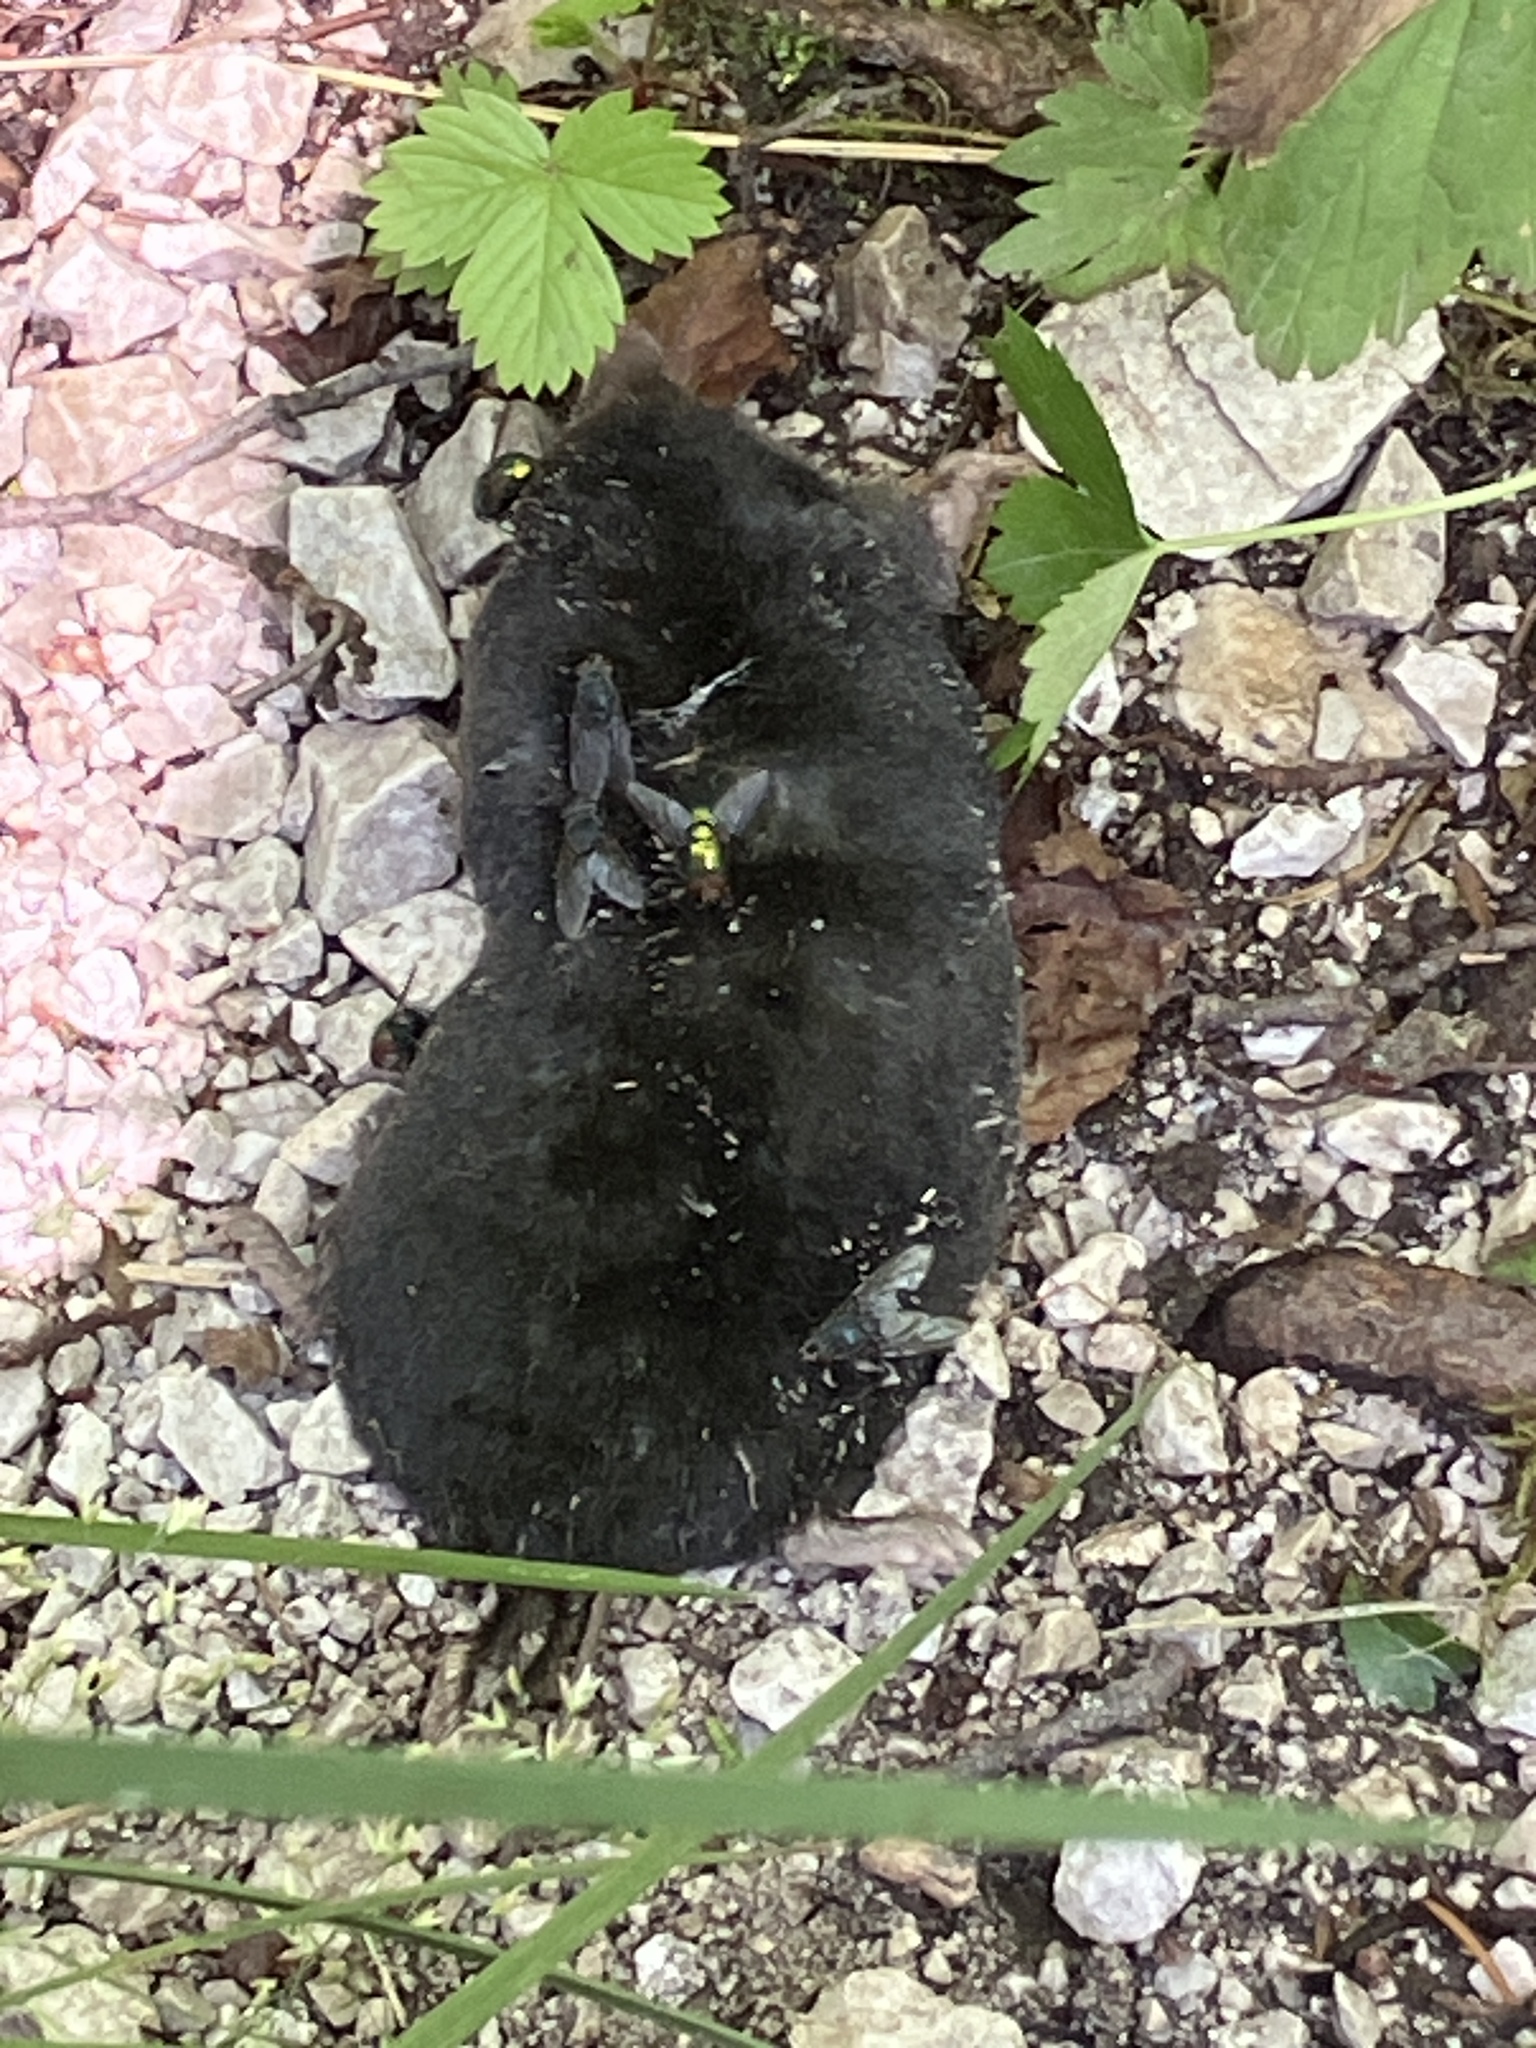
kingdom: Animalia
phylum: Chordata
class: Mammalia
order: Soricomorpha
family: Talpidae
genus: Talpa
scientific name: Talpa europaea
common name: European mole
